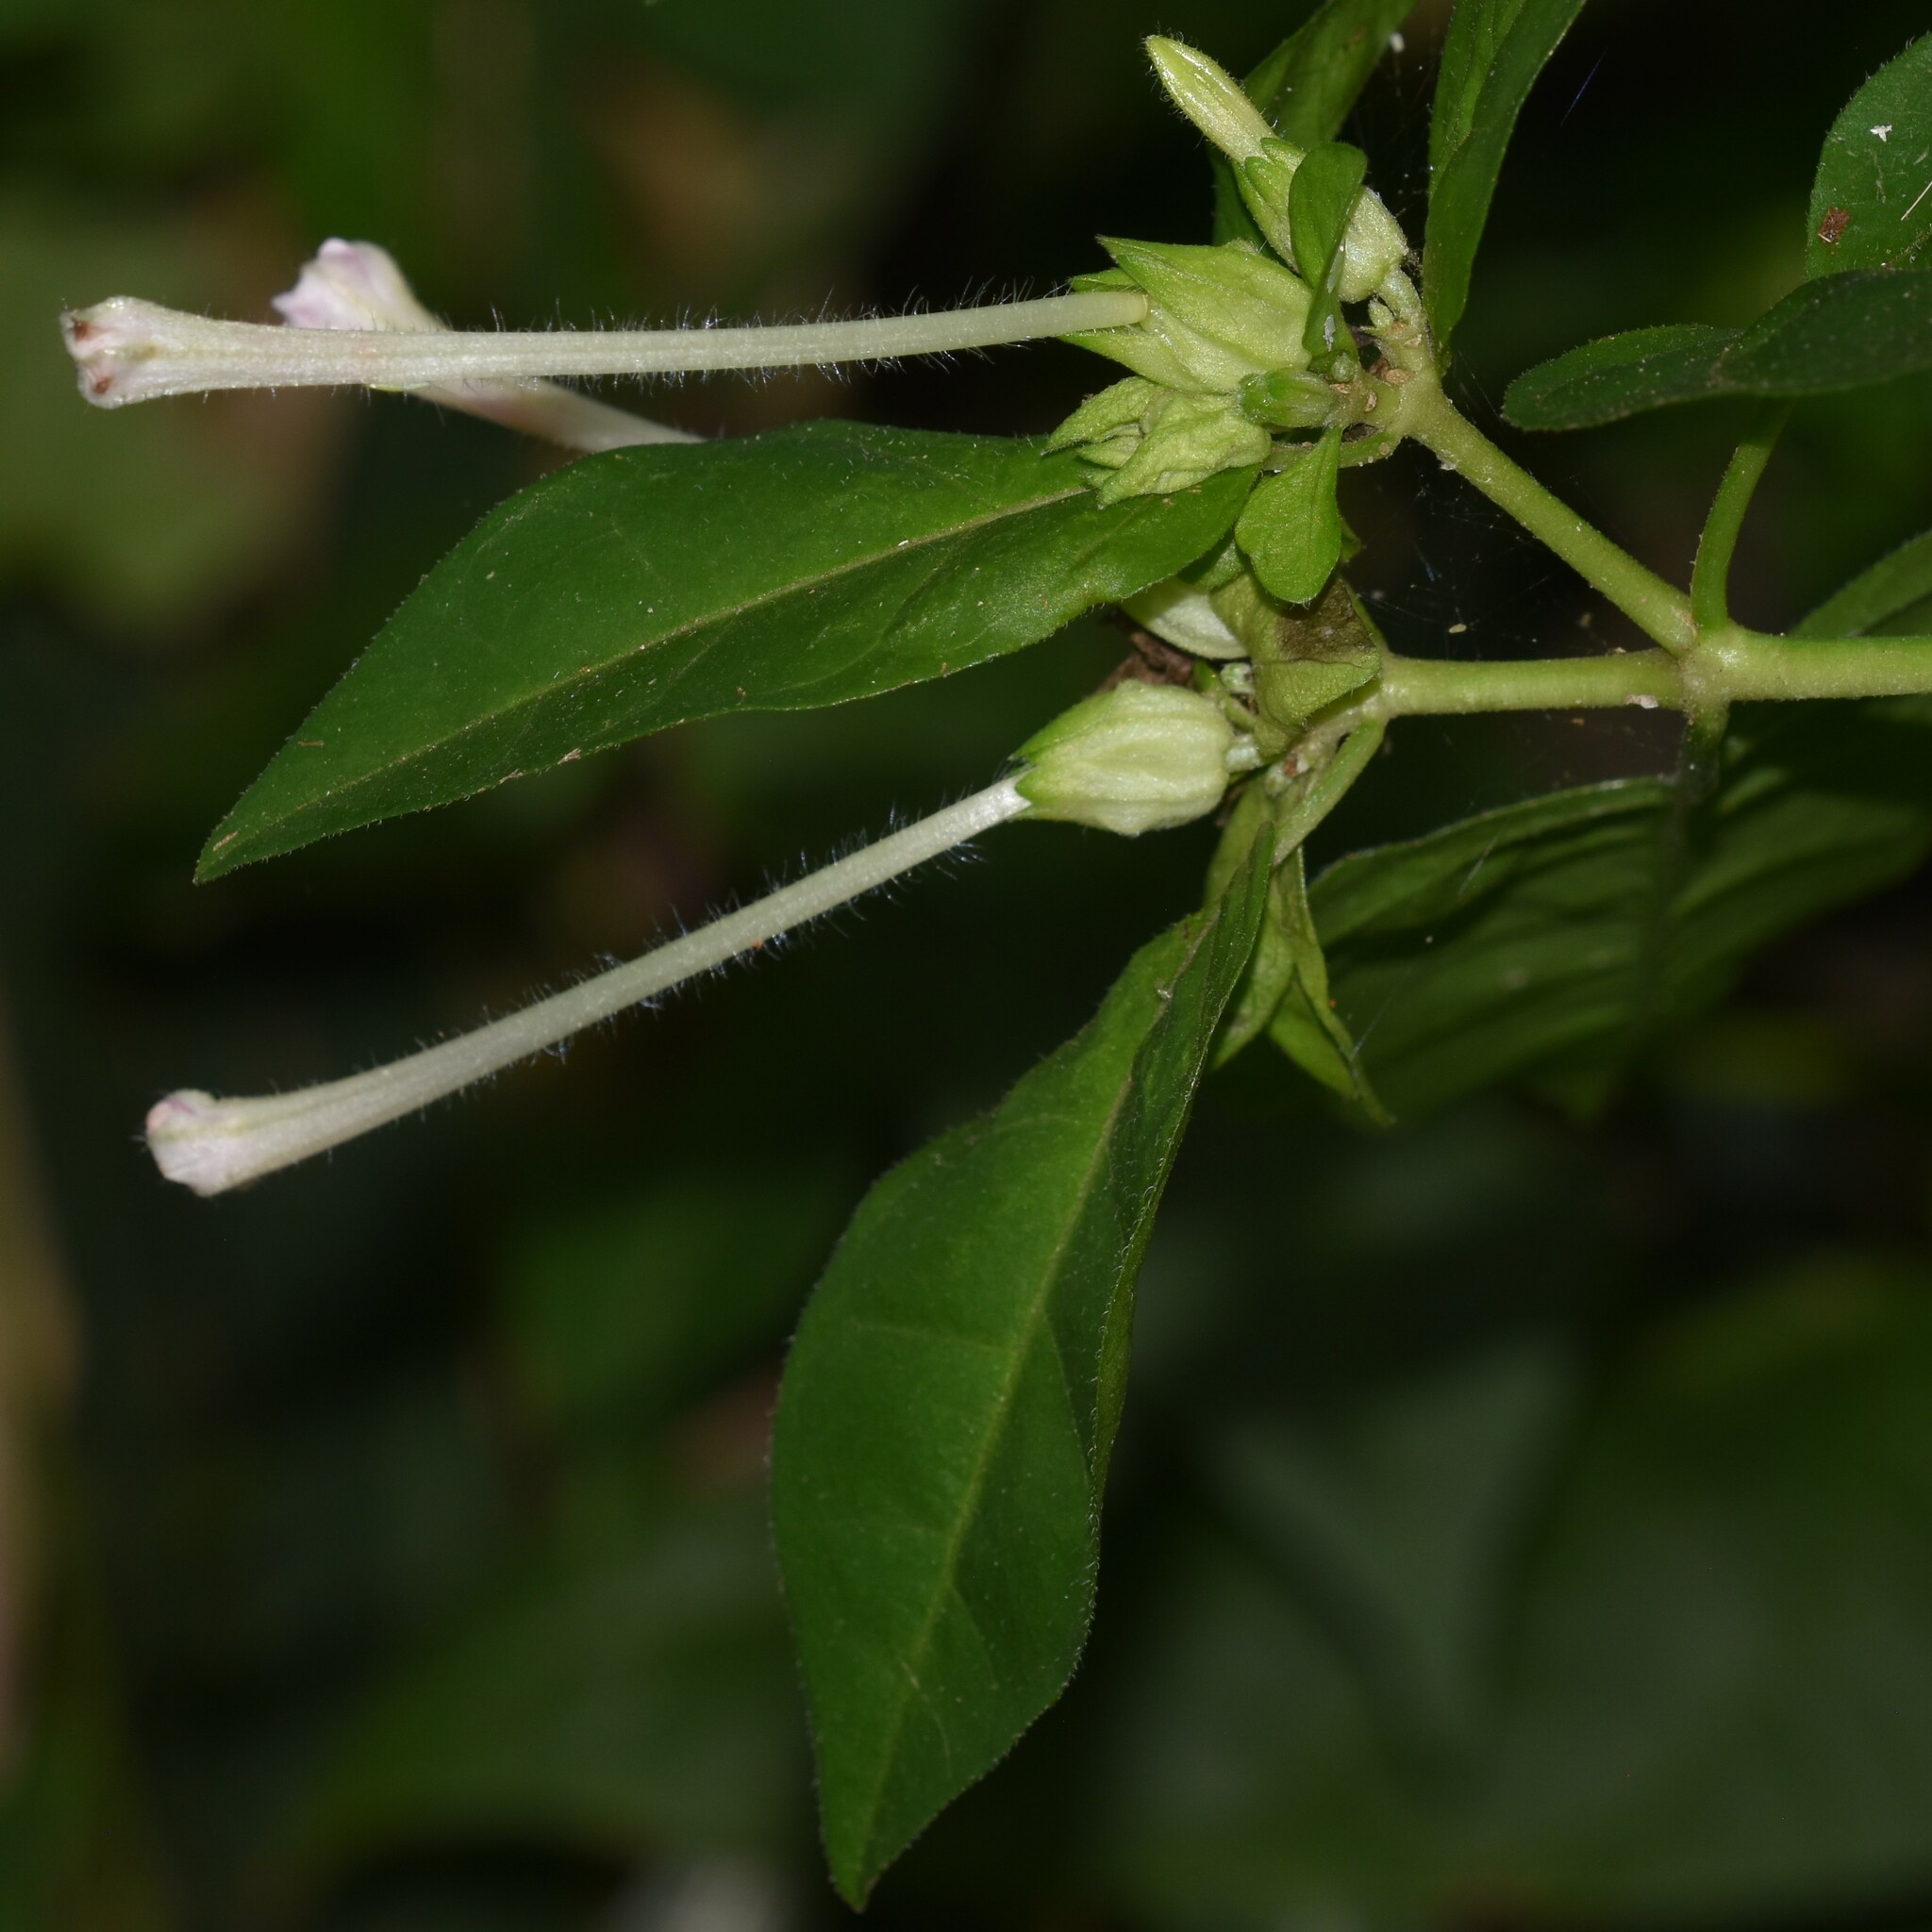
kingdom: Plantae
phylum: Tracheophyta
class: Magnoliopsida
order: Caryophyllales
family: Nyctaginaceae
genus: Mirabilis
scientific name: Mirabilis jalapa
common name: Marvel-of-peru
